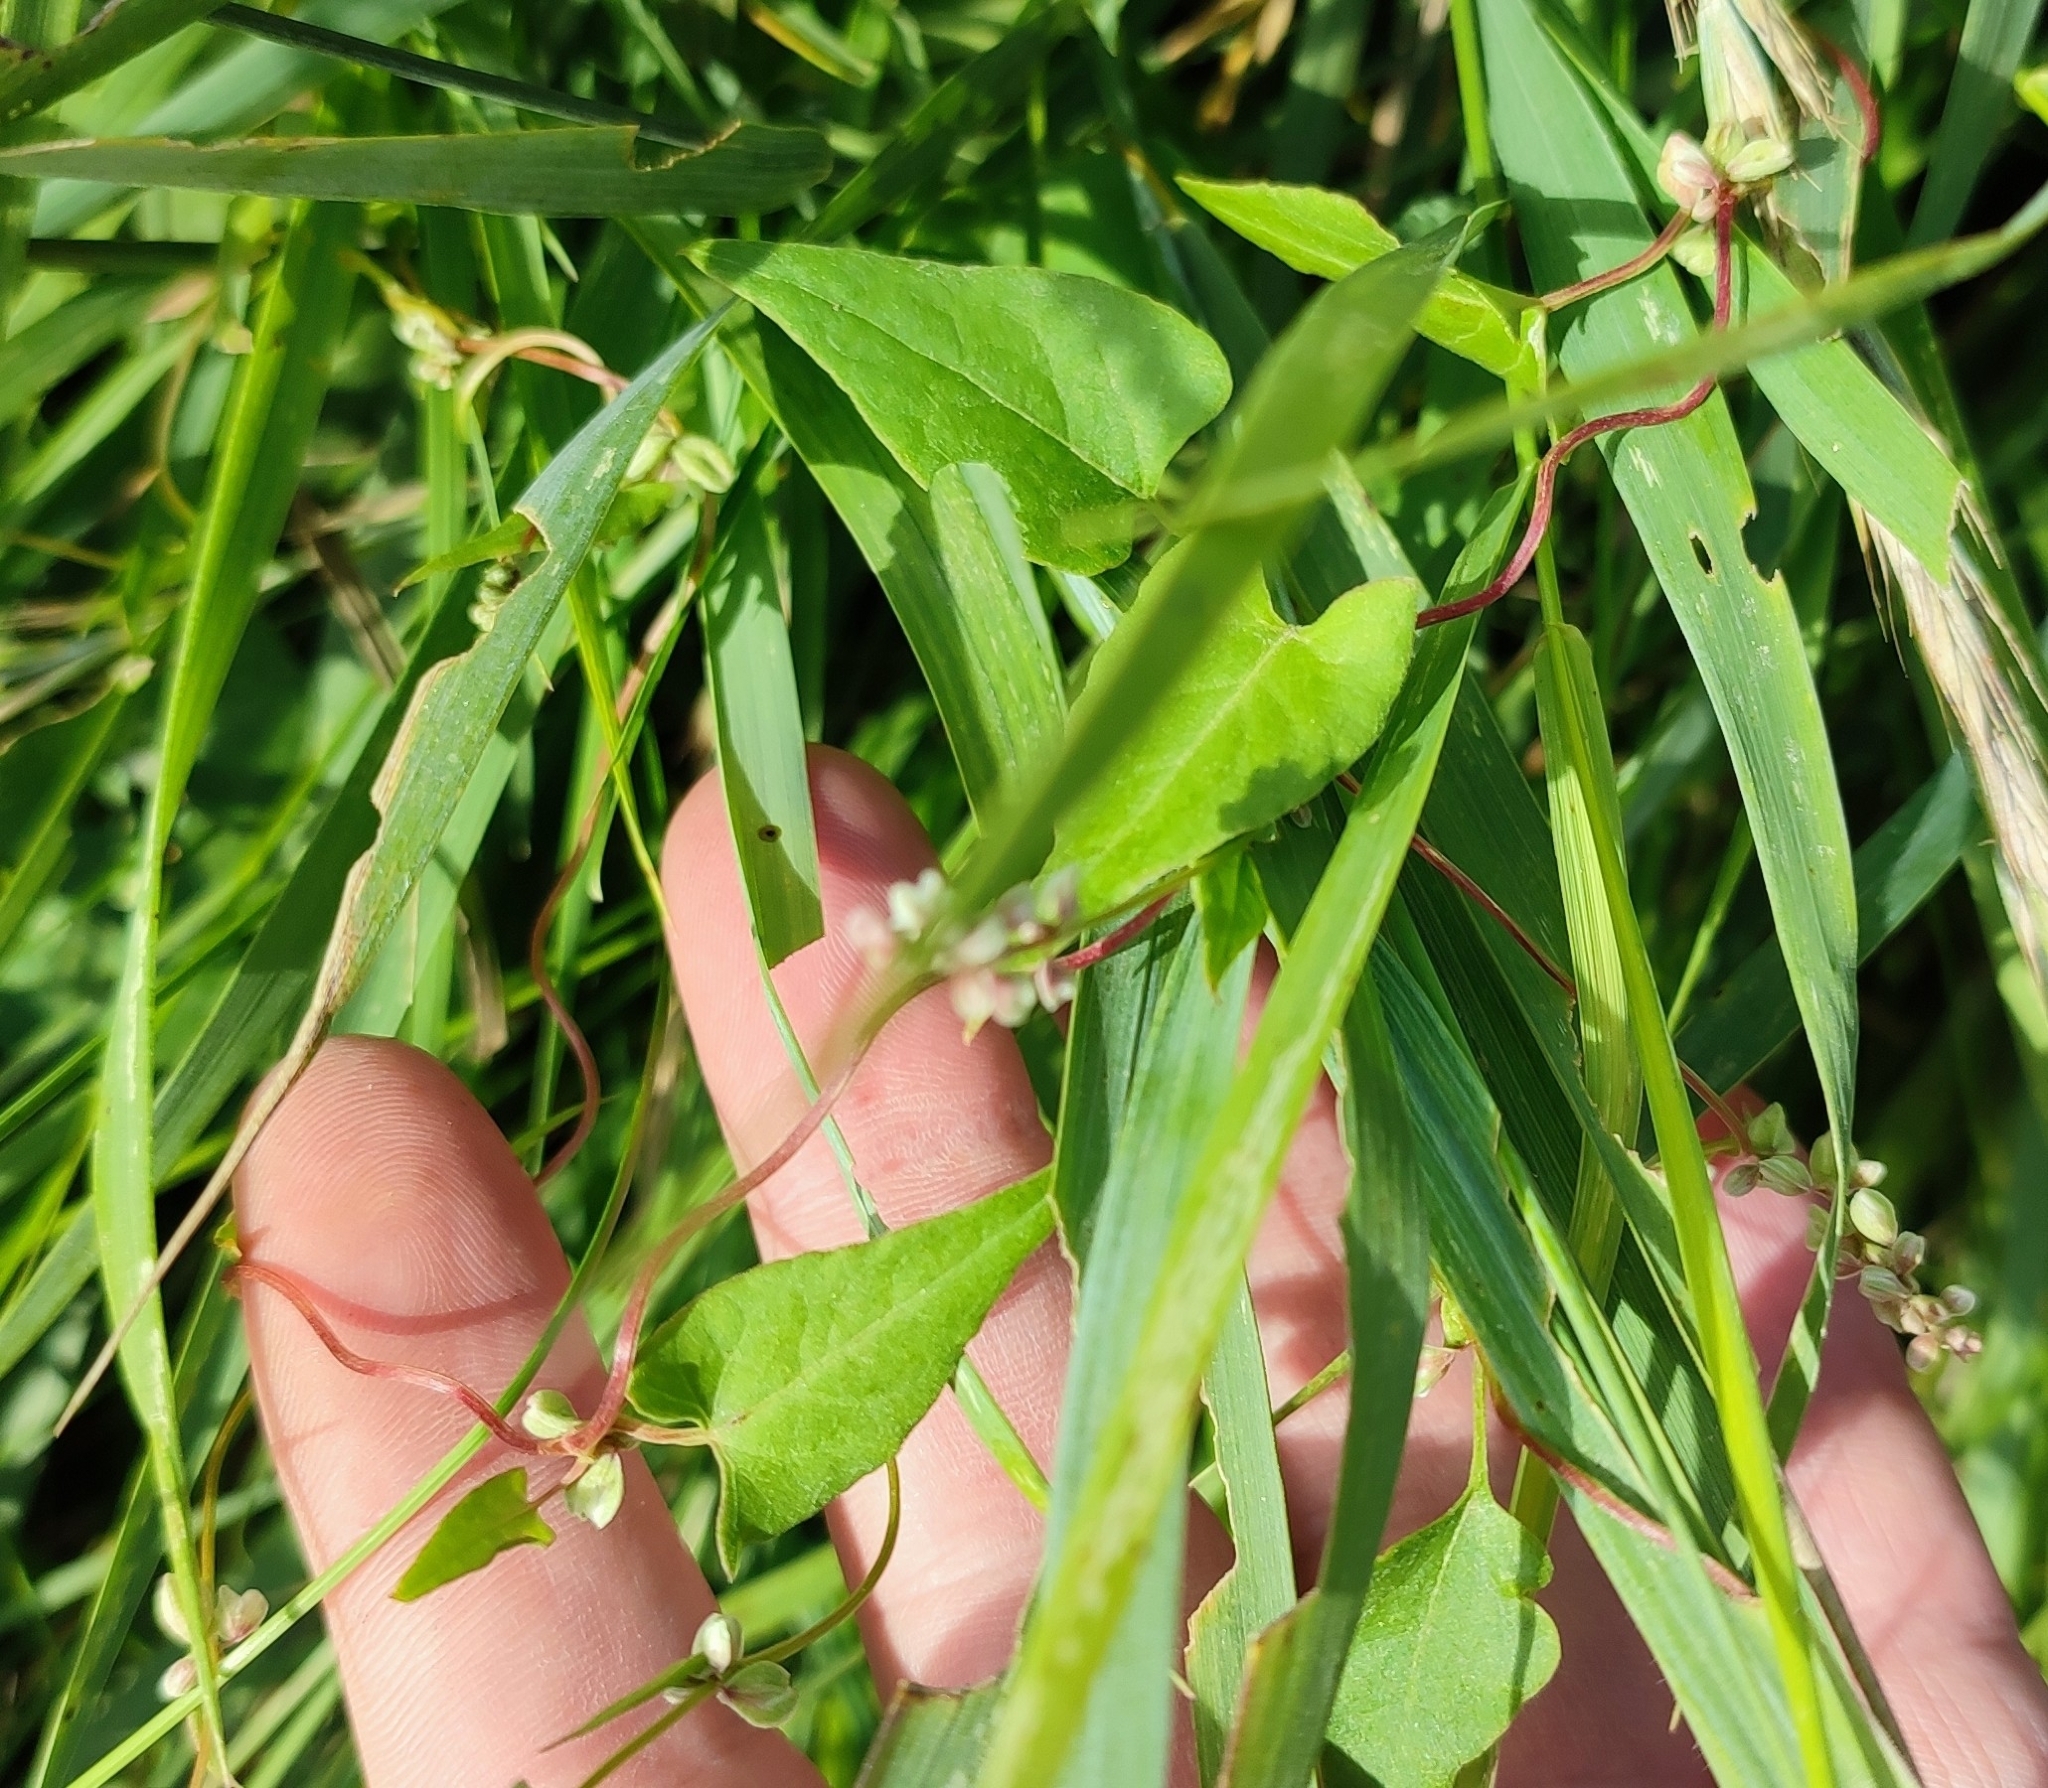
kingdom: Plantae
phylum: Tracheophyta
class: Magnoliopsida
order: Caryophyllales
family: Polygonaceae
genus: Fallopia
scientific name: Fallopia convolvulus
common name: Black bindweed
